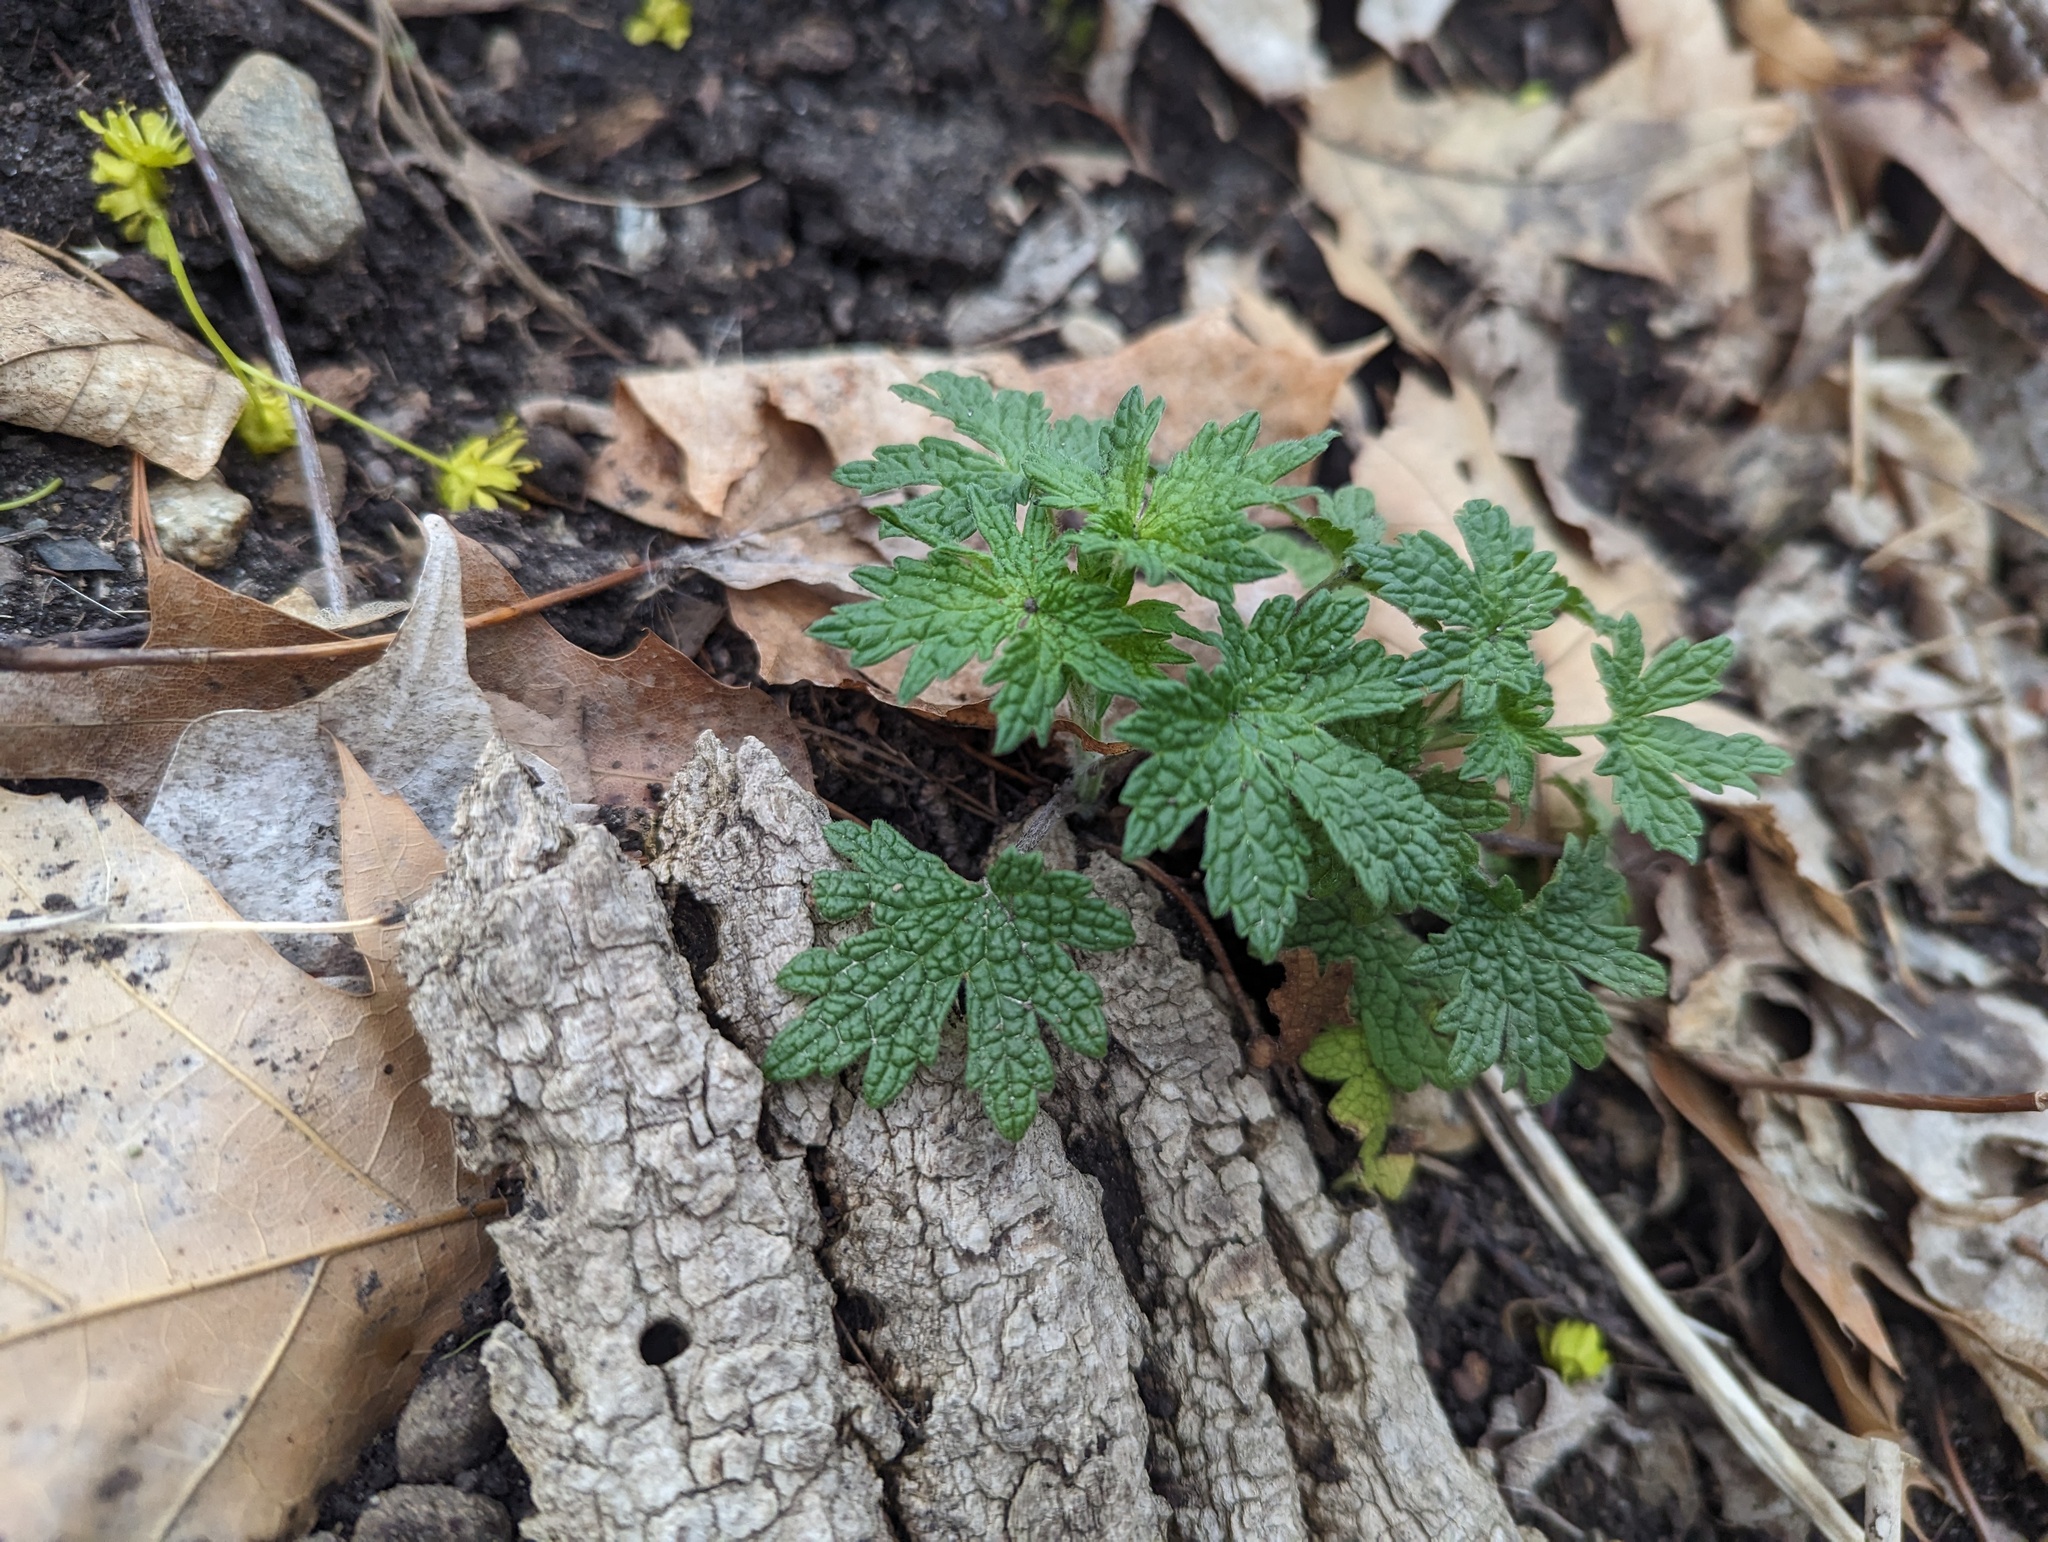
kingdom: Plantae
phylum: Tracheophyta
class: Magnoliopsida
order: Lamiales
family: Lamiaceae
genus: Leonurus
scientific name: Leonurus cardiaca
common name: Motherwort
